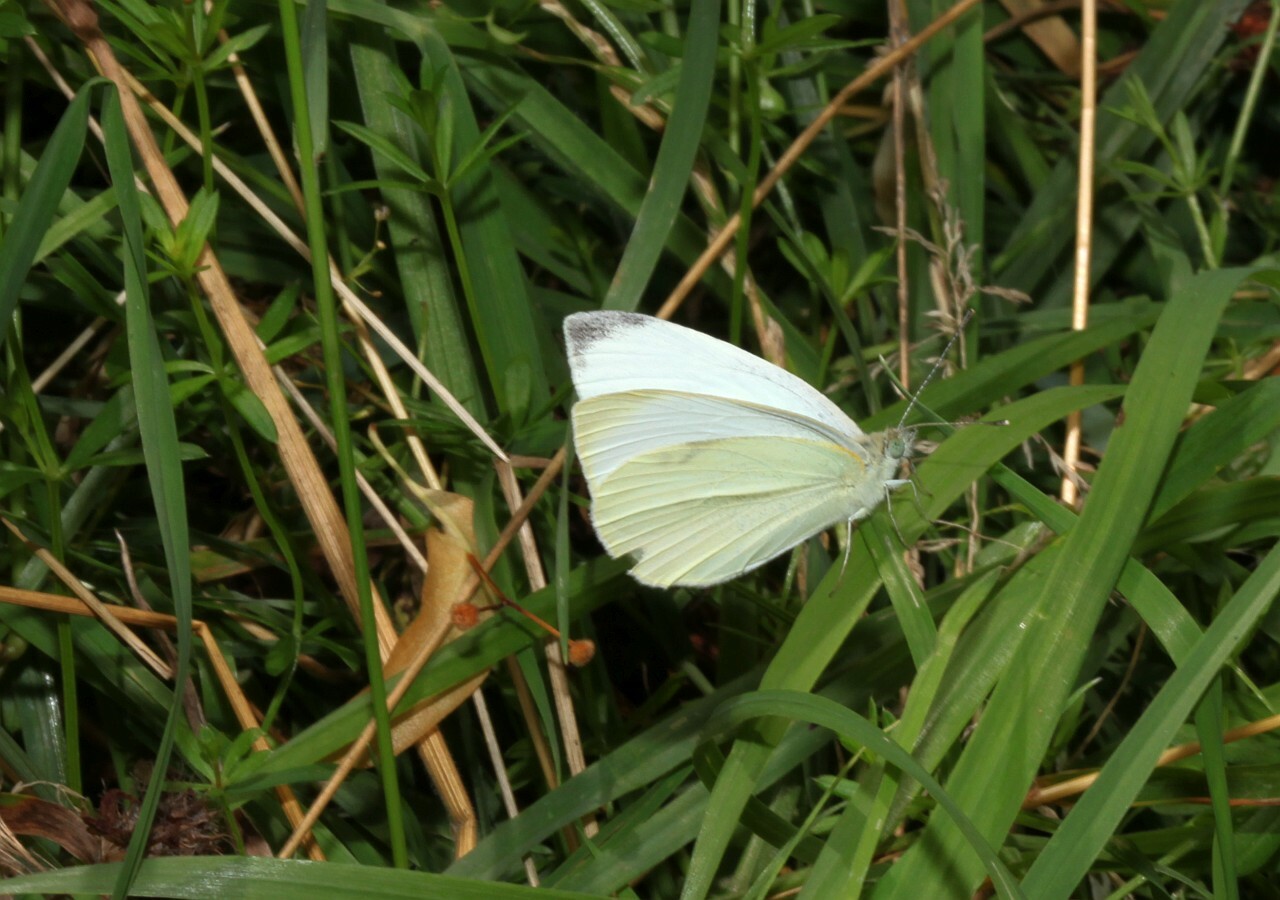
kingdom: Animalia
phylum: Arthropoda
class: Insecta
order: Lepidoptera
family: Pieridae
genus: Pieris
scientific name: Pieris rapae
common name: Small white
